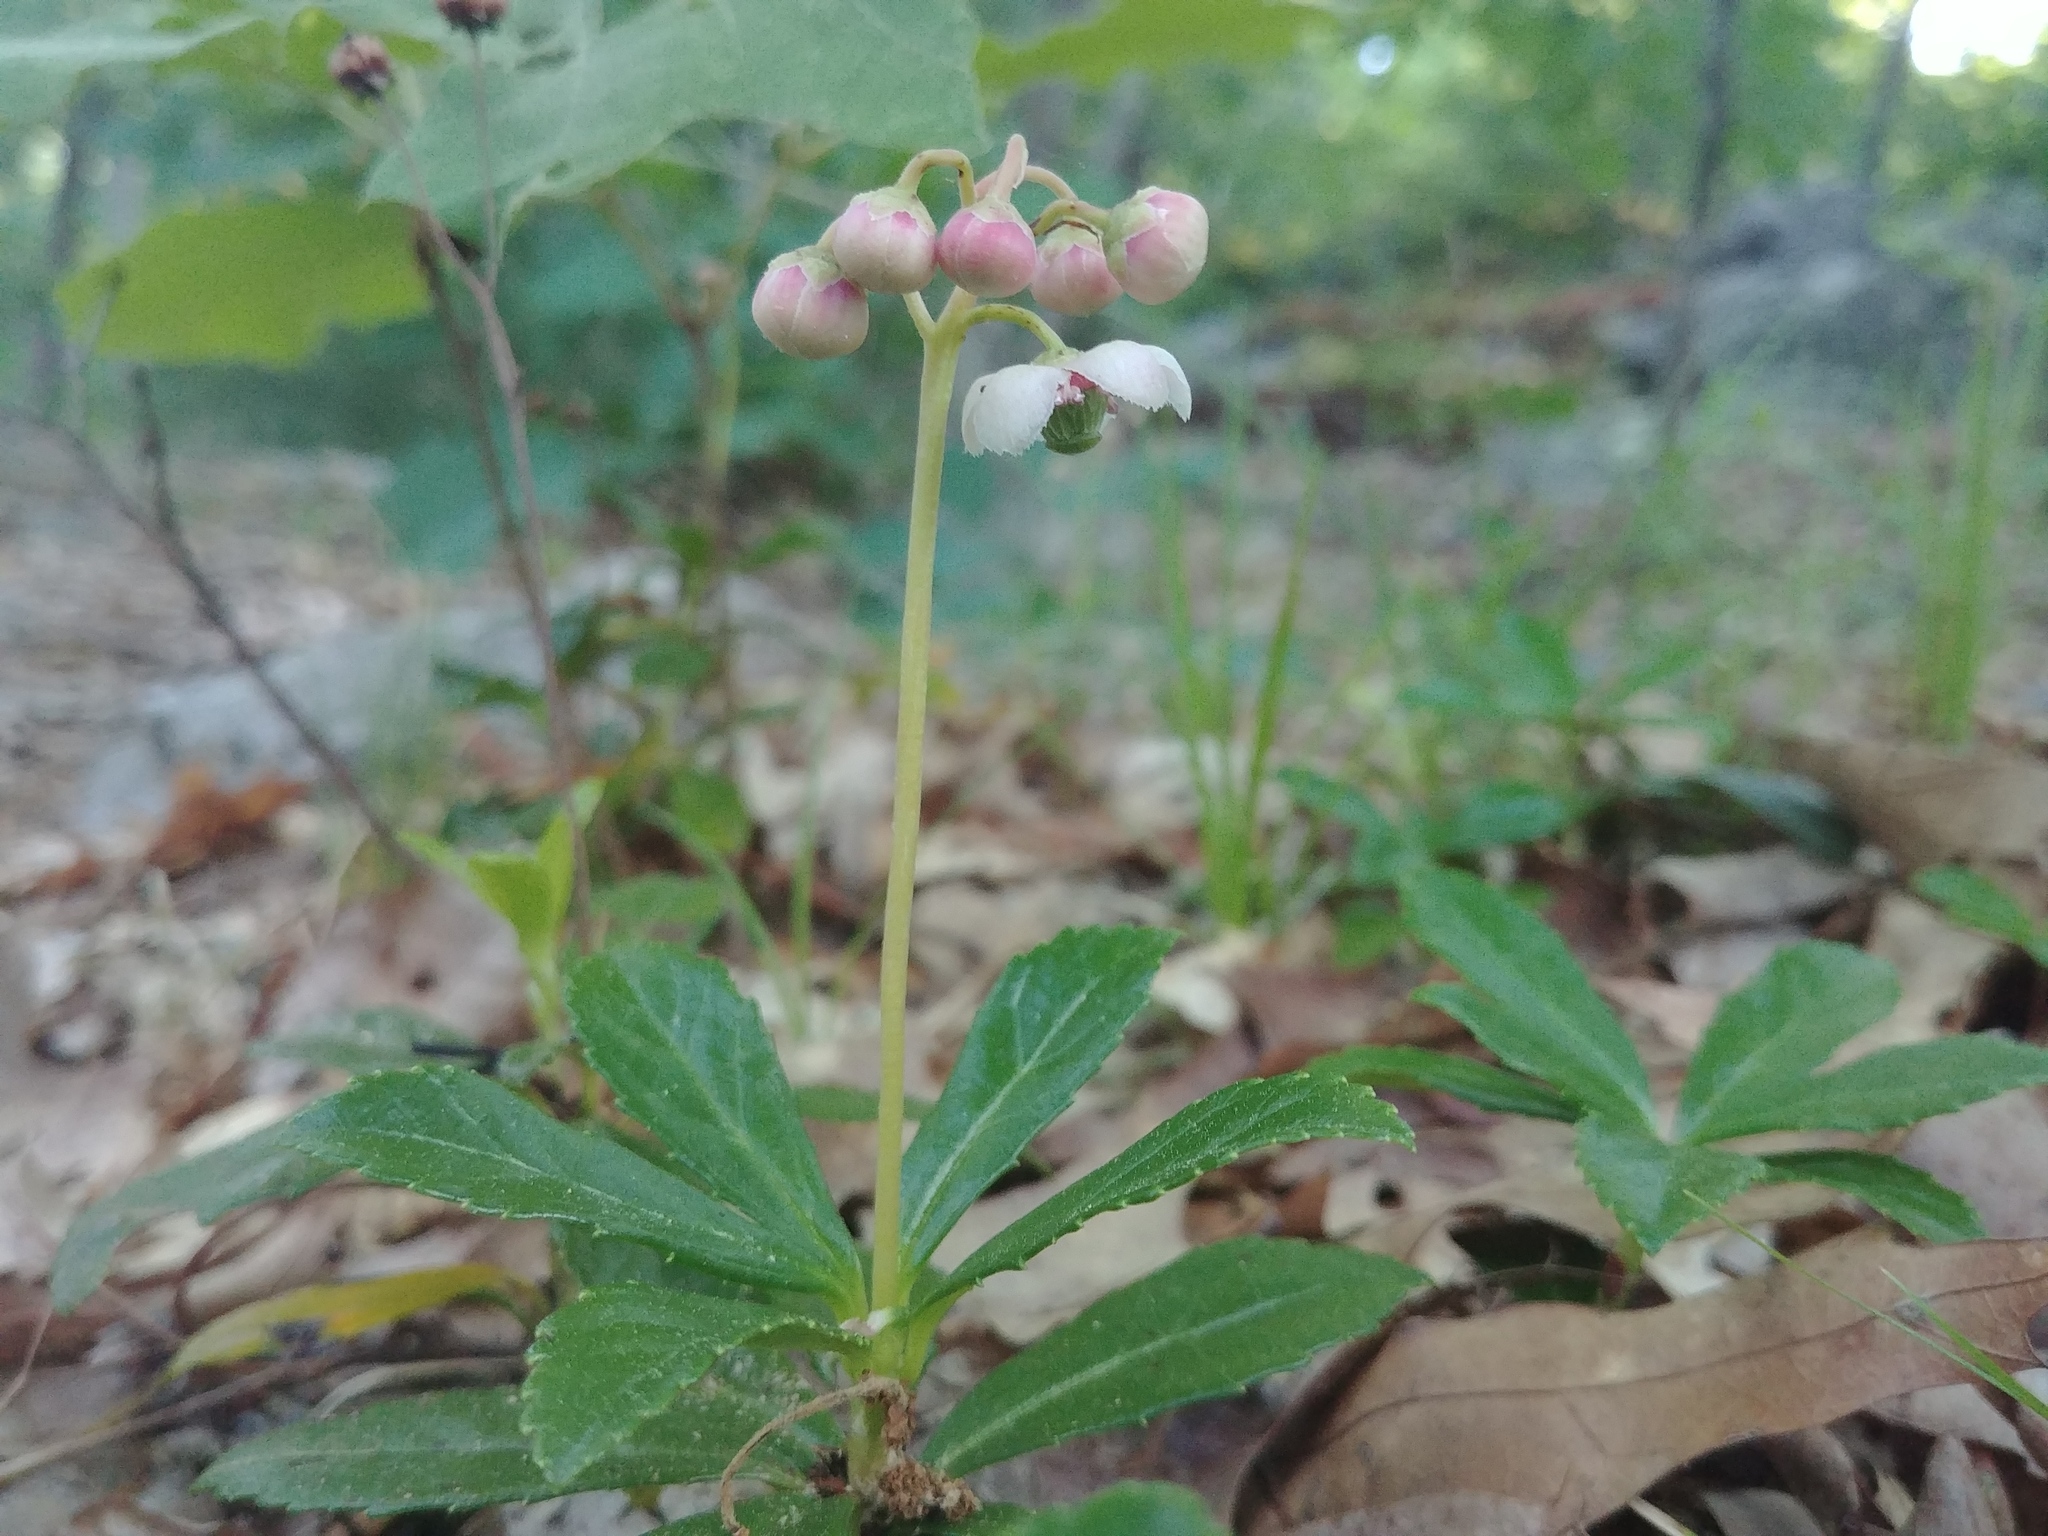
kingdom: Plantae
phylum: Tracheophyta
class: Magnoliopsida
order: Ericales
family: Ericaceae
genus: Chimaphila
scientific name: Chimaphila umbellata
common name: Pipsissewa
